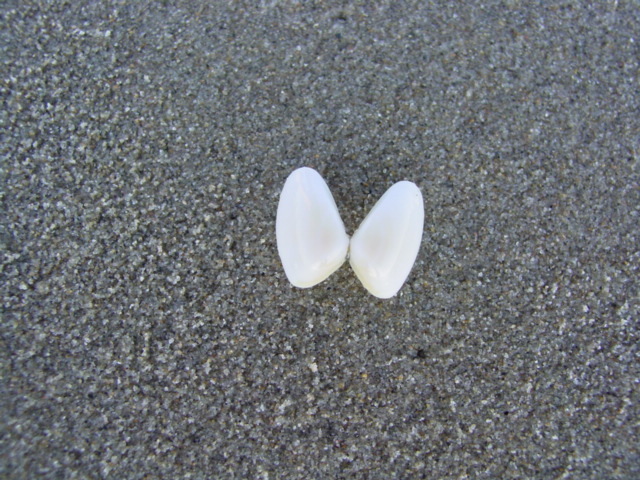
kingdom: Animalia
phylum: Mollusca
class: Bivalvia
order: Cardiida
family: Donacidae
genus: Donax
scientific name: Donax gouldii
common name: Gould beanclam
